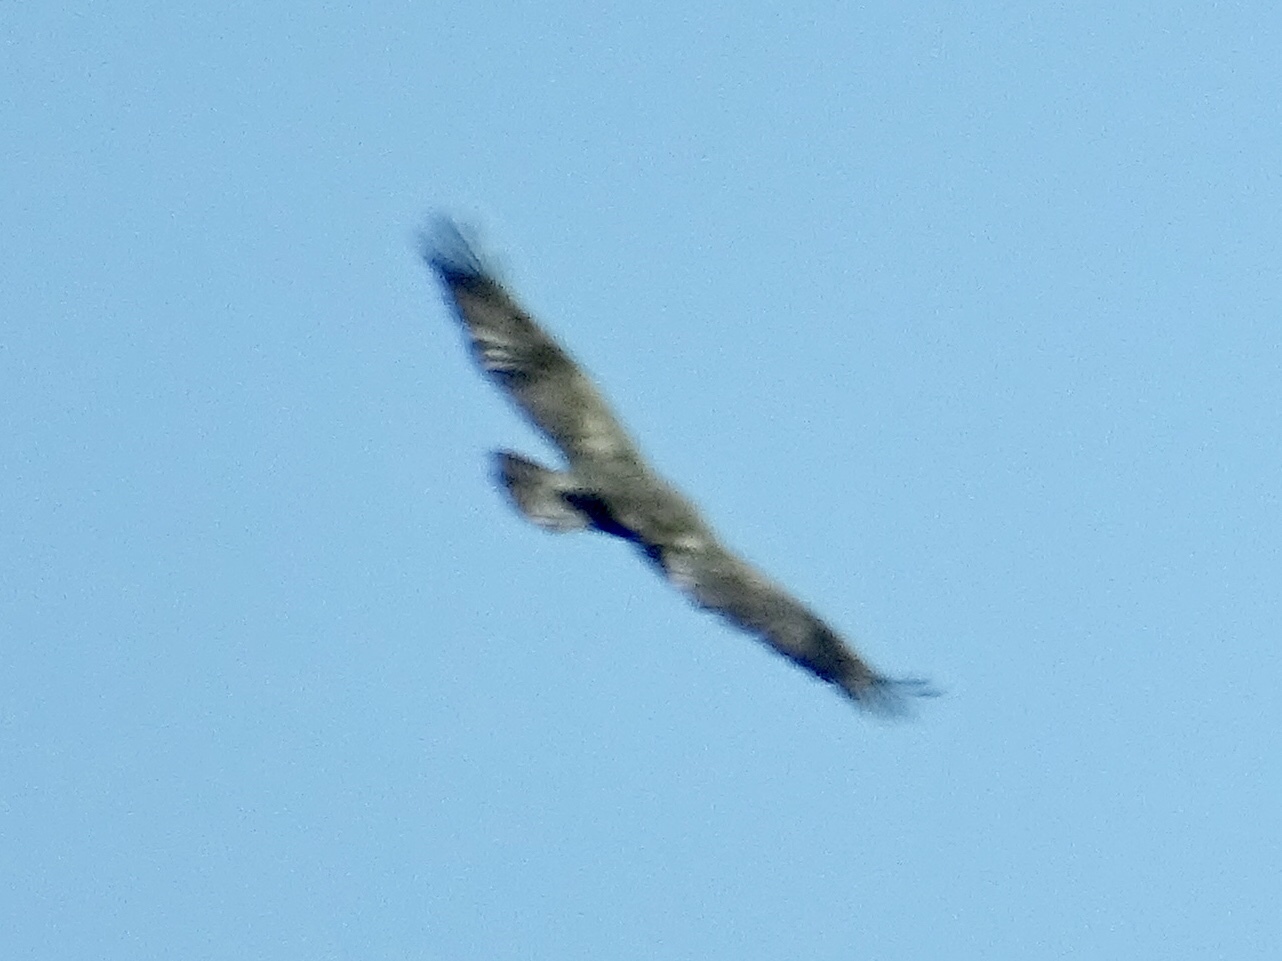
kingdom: Animalia
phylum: Chordata
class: Aves
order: Accipitriformes
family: Accipitridae
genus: Aquila
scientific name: Aquila chrysaetos
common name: Golden eagle
